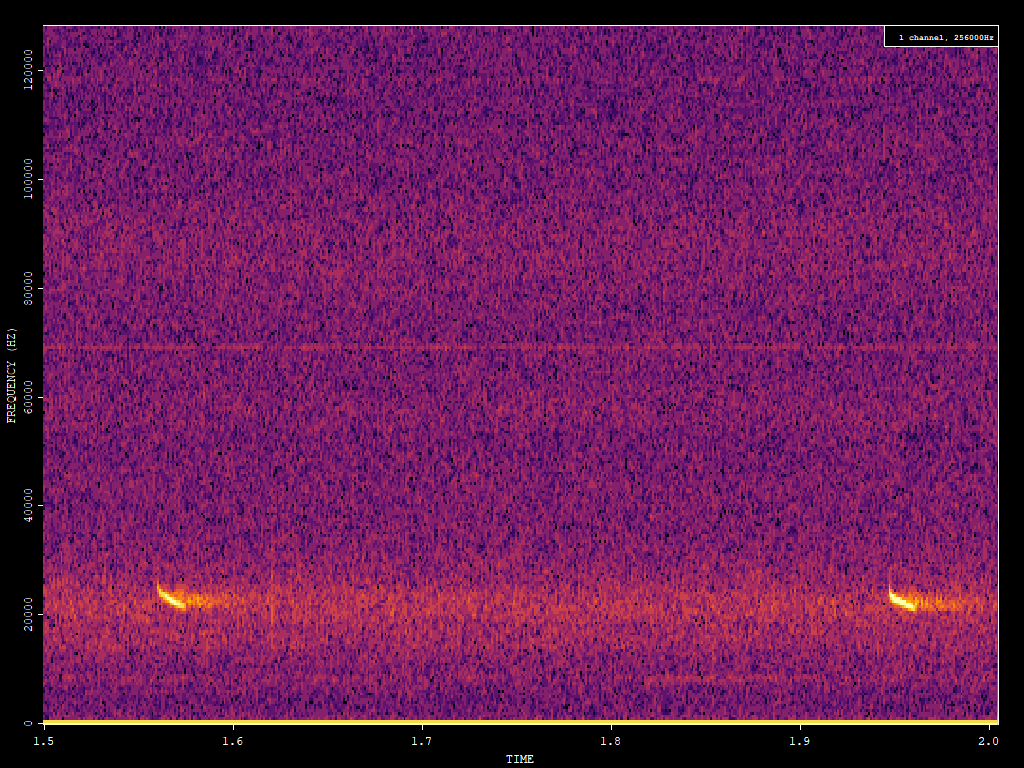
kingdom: Animalia
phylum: Chordata
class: Mammalia
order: Chiroptera
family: Vespertilionidae
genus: Nyctalus
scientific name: Nyctalus noctula
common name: Noctule
